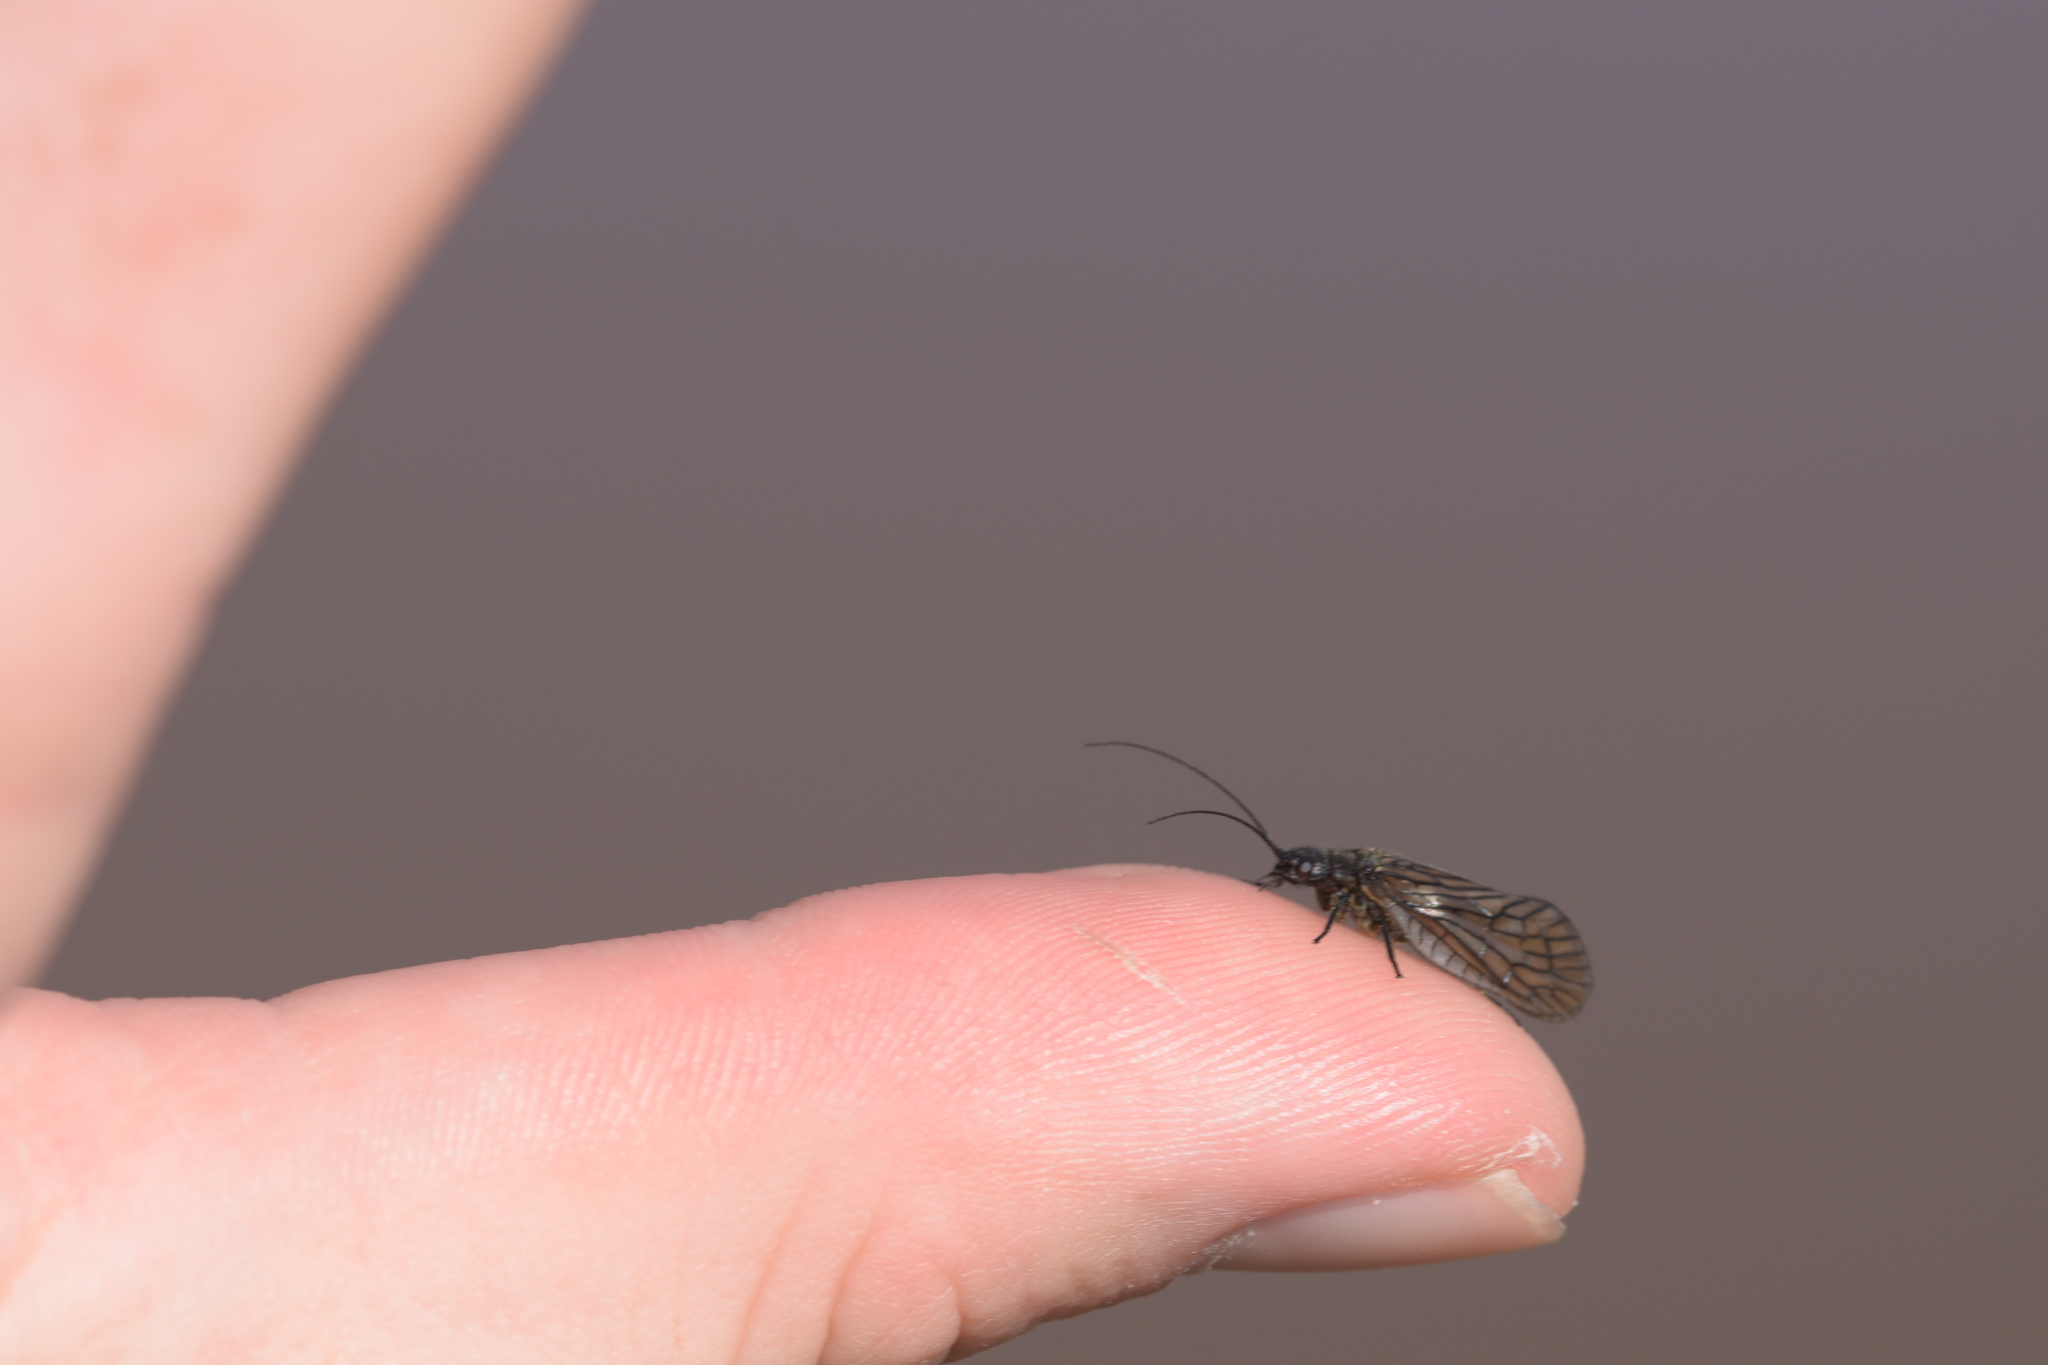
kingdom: Animalia
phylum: Arthropoda
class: Insecta
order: Megaloptera
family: Sialidae
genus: Sialis
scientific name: Sialis
